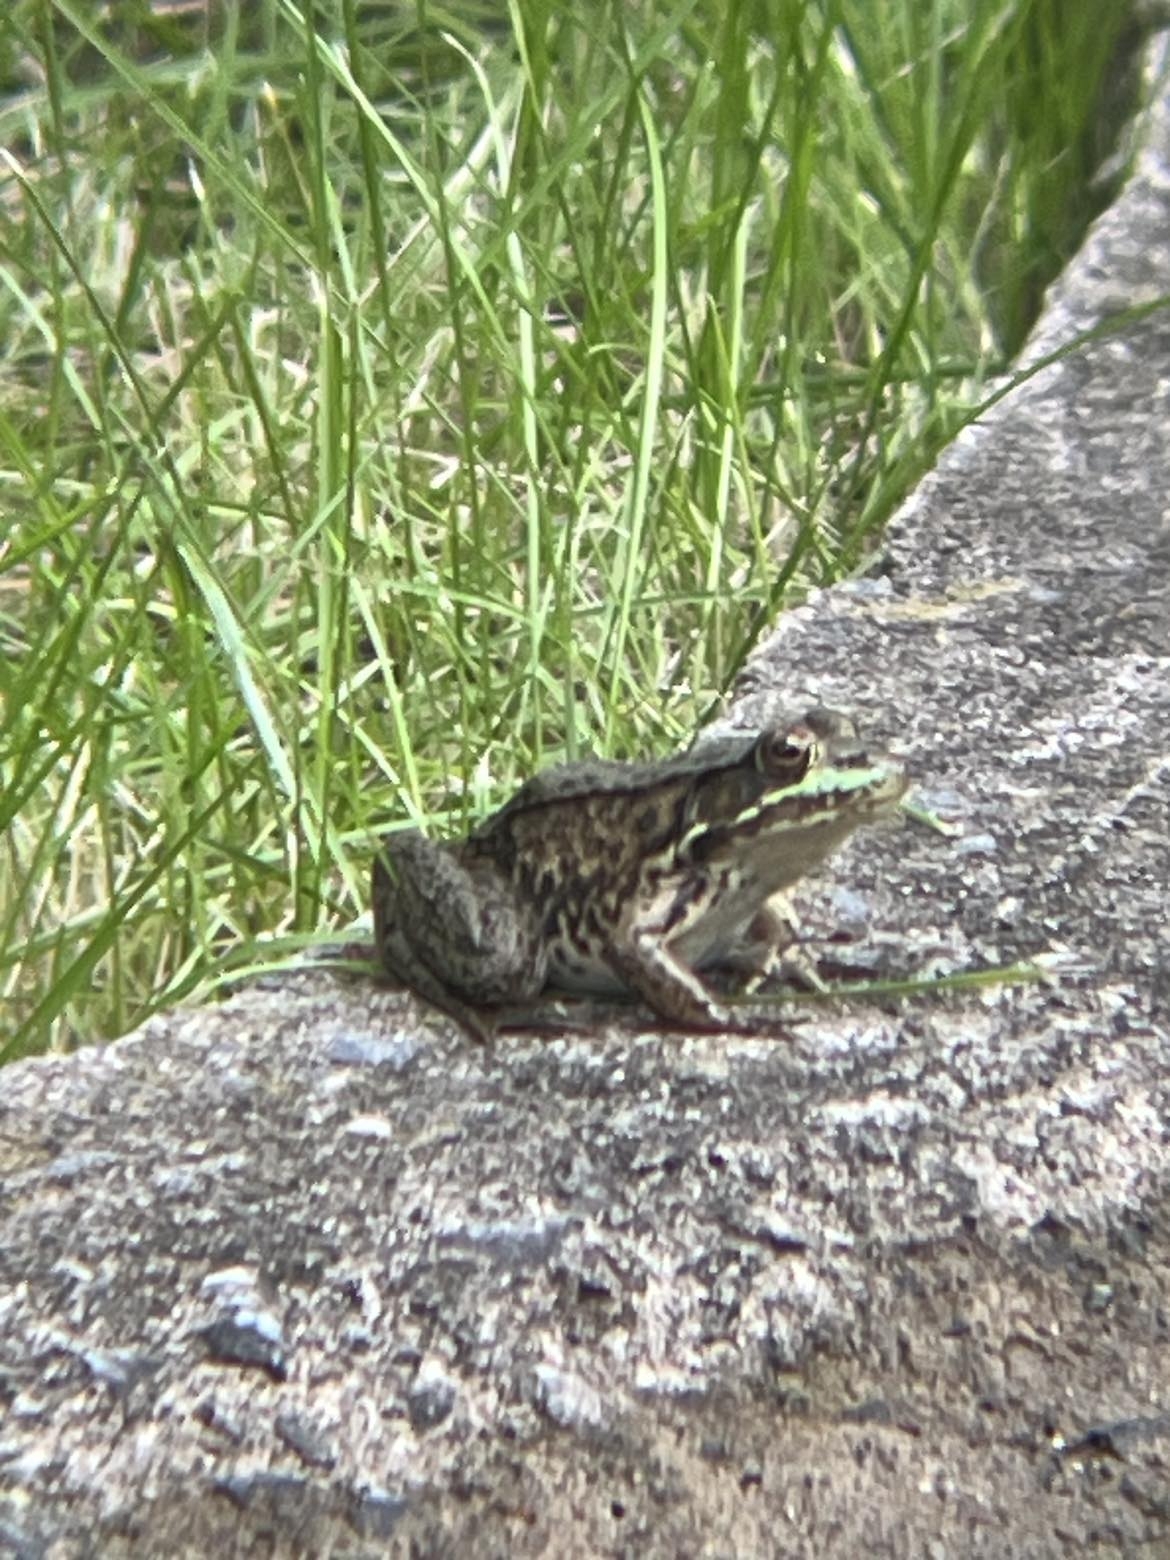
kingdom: Animalia
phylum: Chordata
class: Amphibia
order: Anura
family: Ranidae
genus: Lithobates
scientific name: Lithobates clamitans
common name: Green frog
